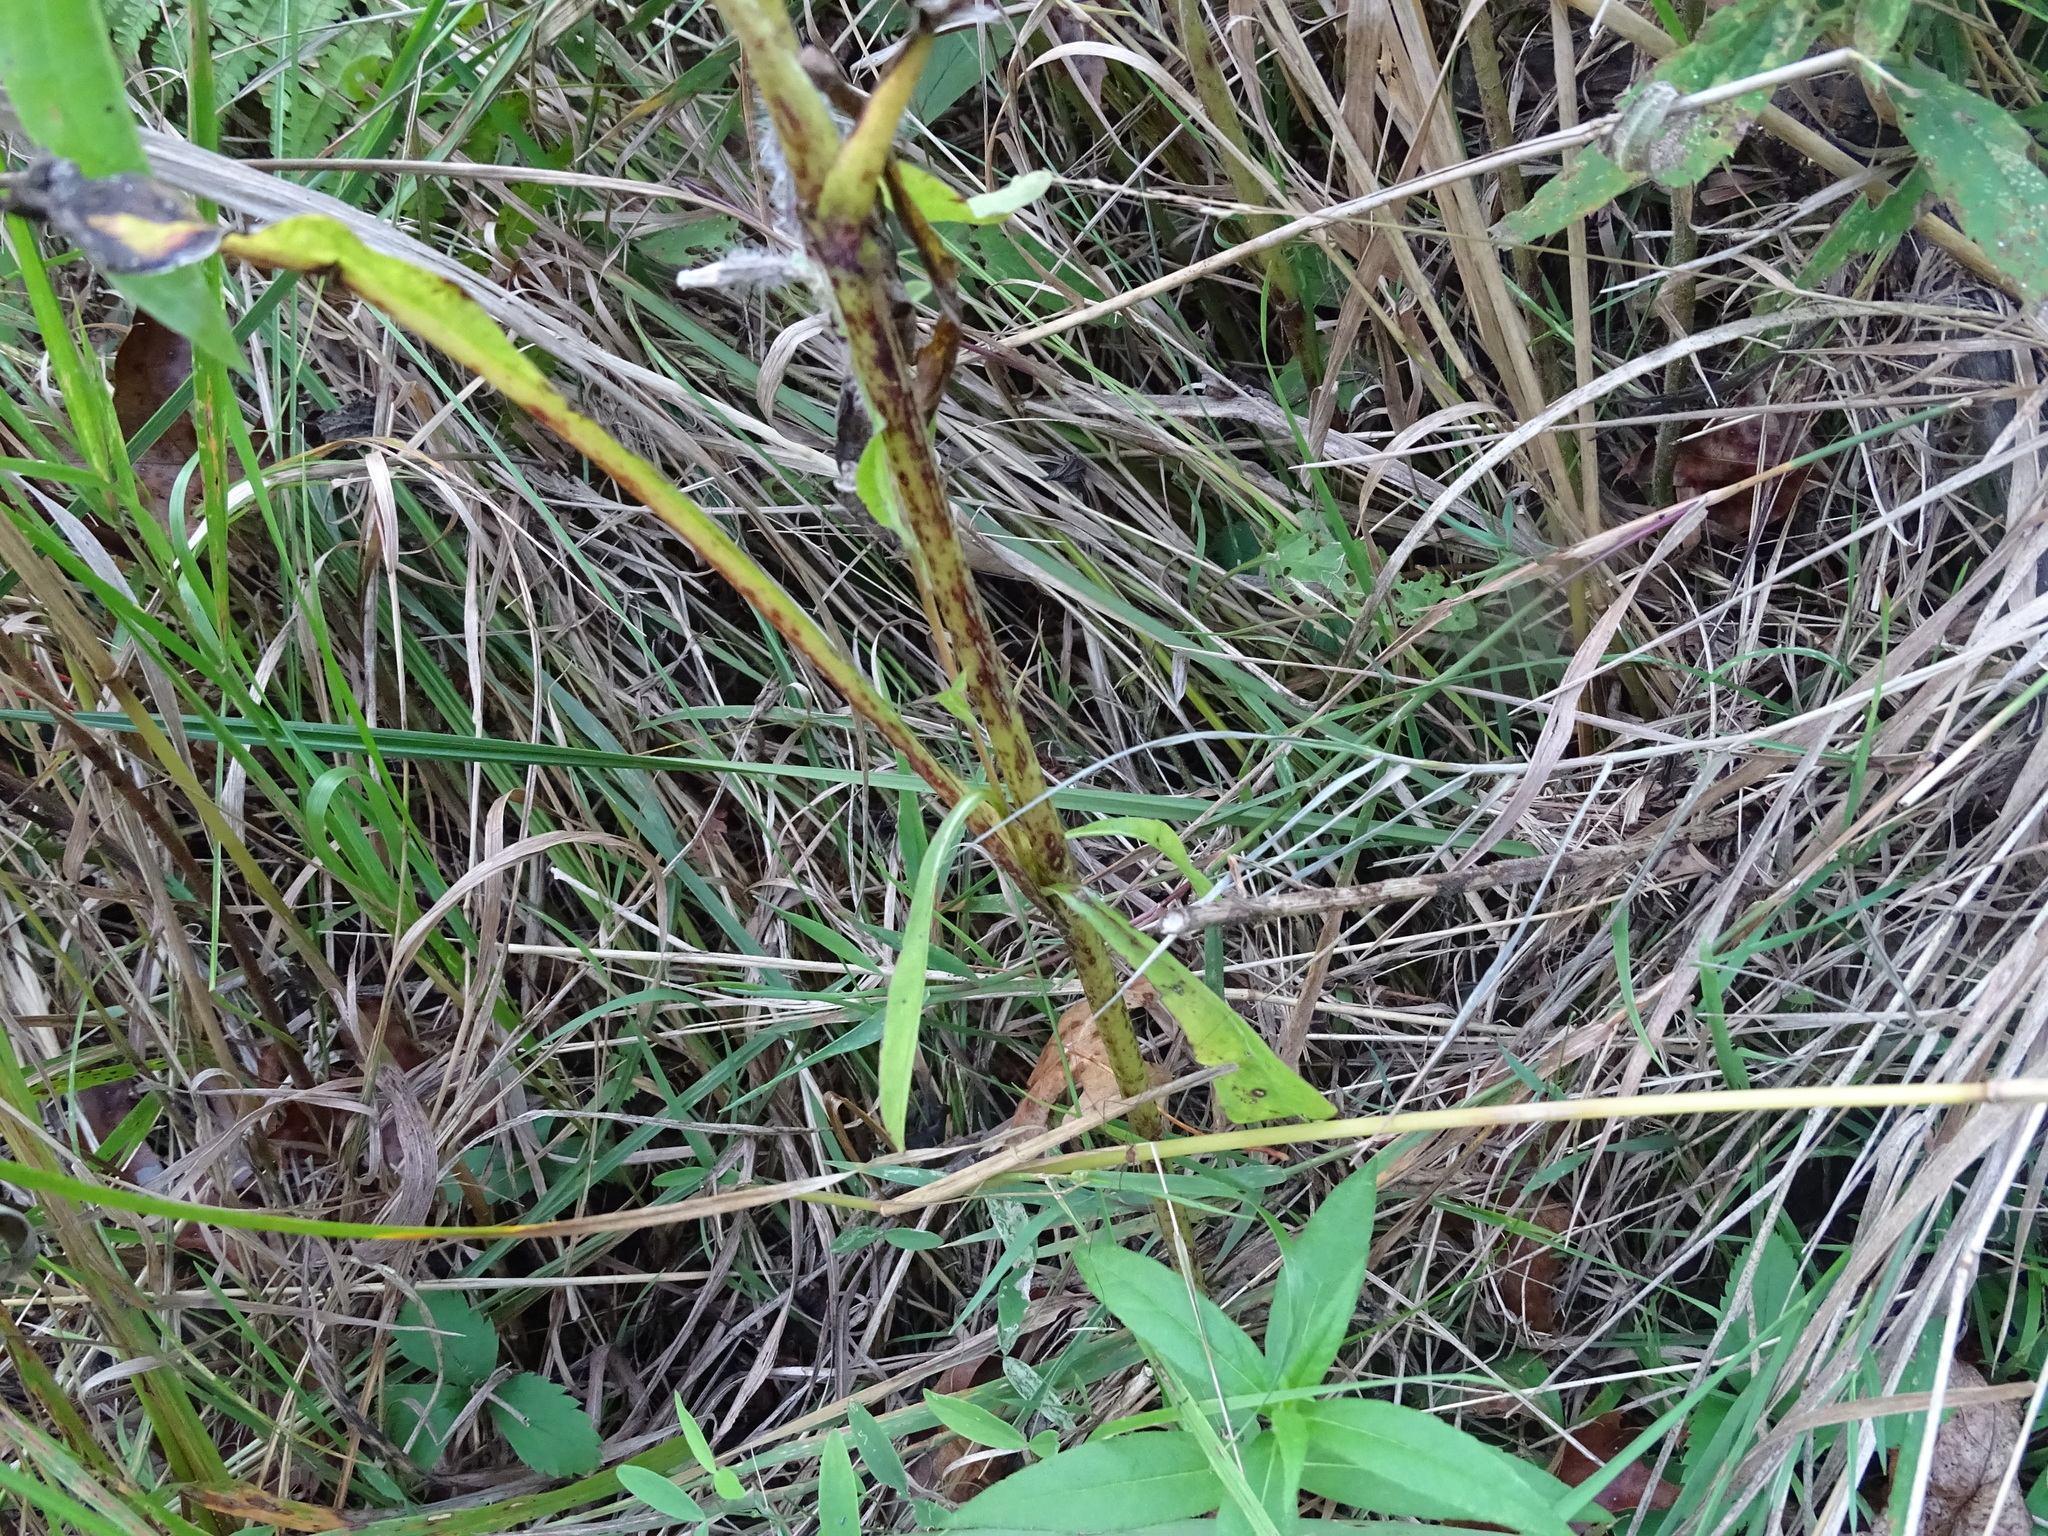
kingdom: Plantae
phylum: Tracheophyta
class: Magnoliopsida
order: Asterales
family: Asteraceae
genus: Nabalus
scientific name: Nabalus racemosus
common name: Glaucous white lettuce
